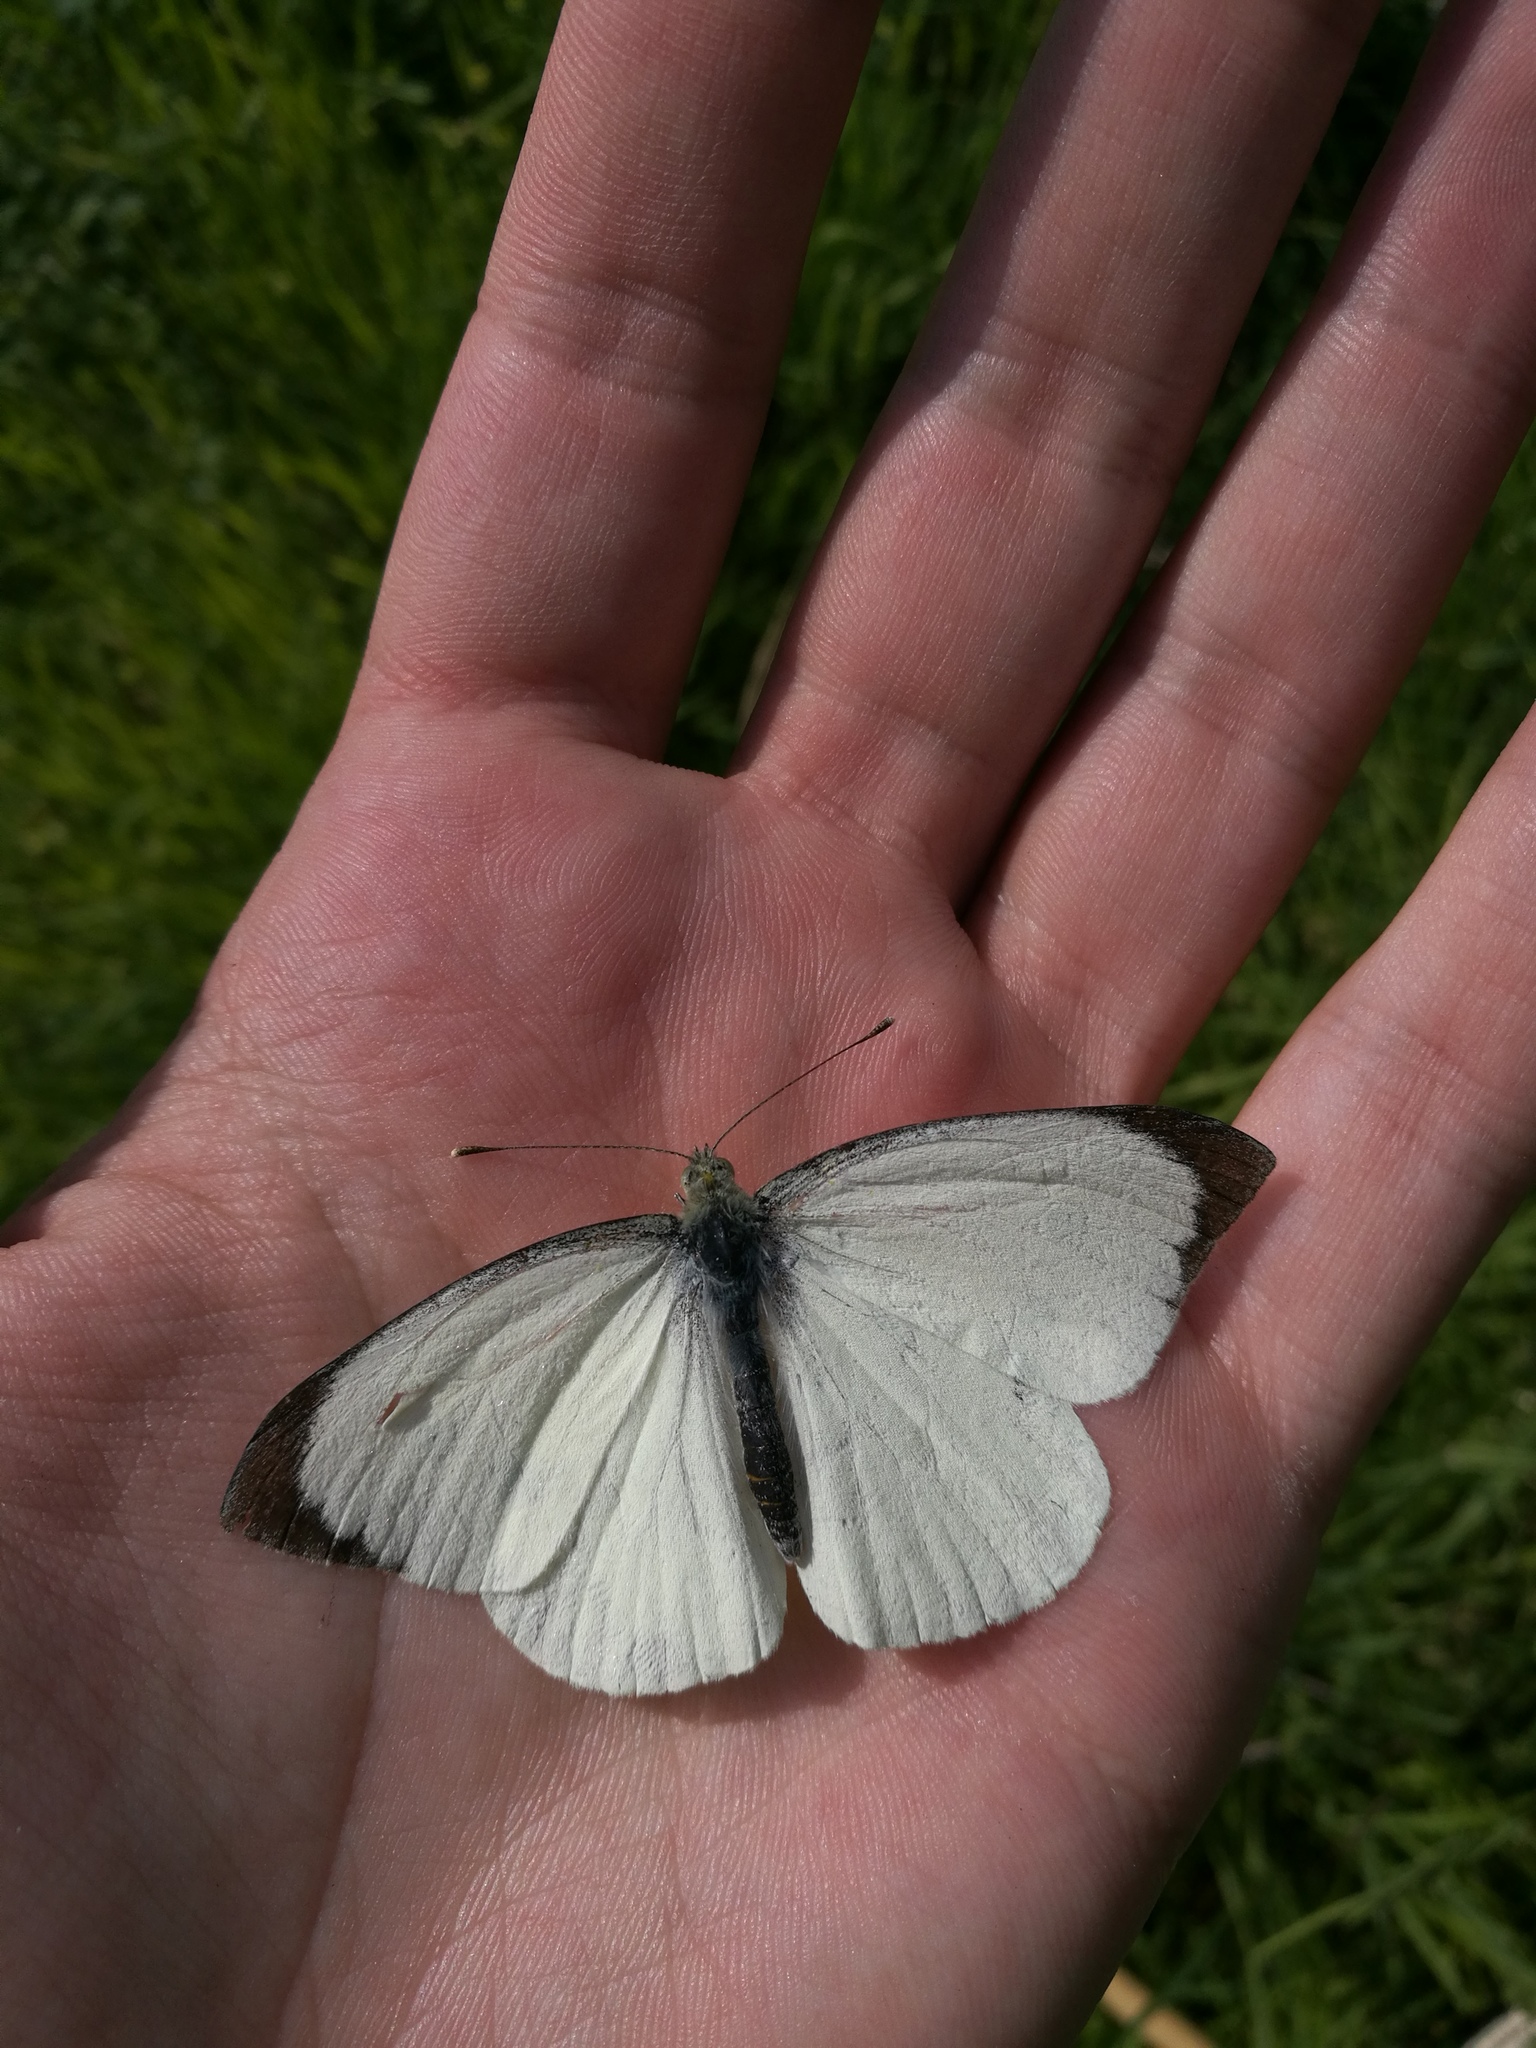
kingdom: Animalia
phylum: Arthropoda
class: Insecta
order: Lepidoptera
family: Pieridae
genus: Pieris
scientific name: Pieris brassicae
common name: Large white
